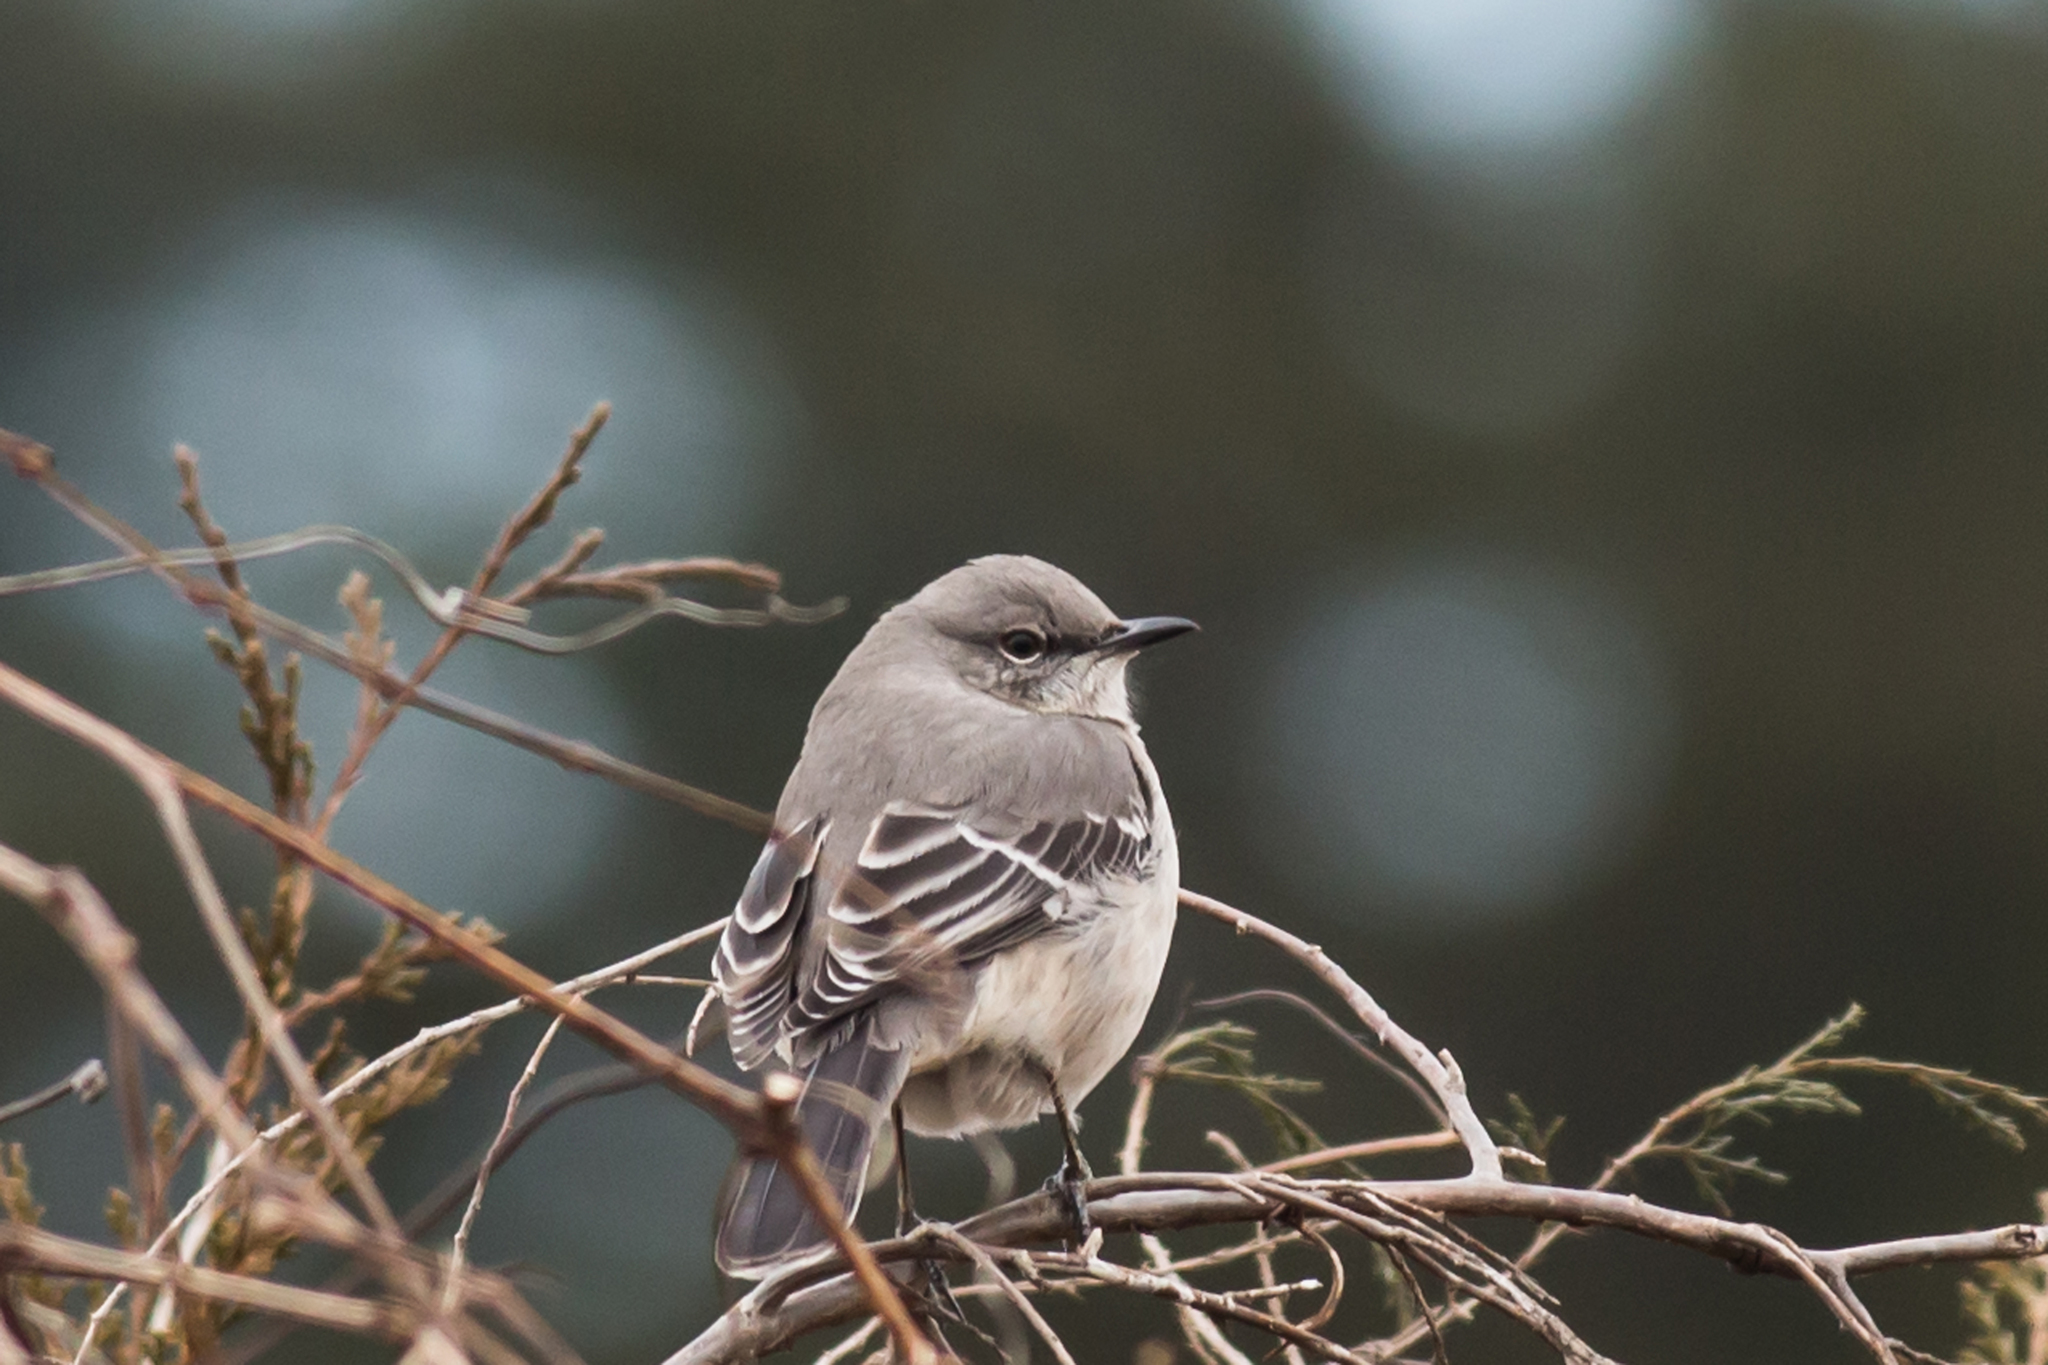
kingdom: Animalia
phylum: Chordata
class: Aves
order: Passeriformes
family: Mimidae
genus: Mimus
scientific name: Mimus polyglottos
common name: Northern mockingbird
